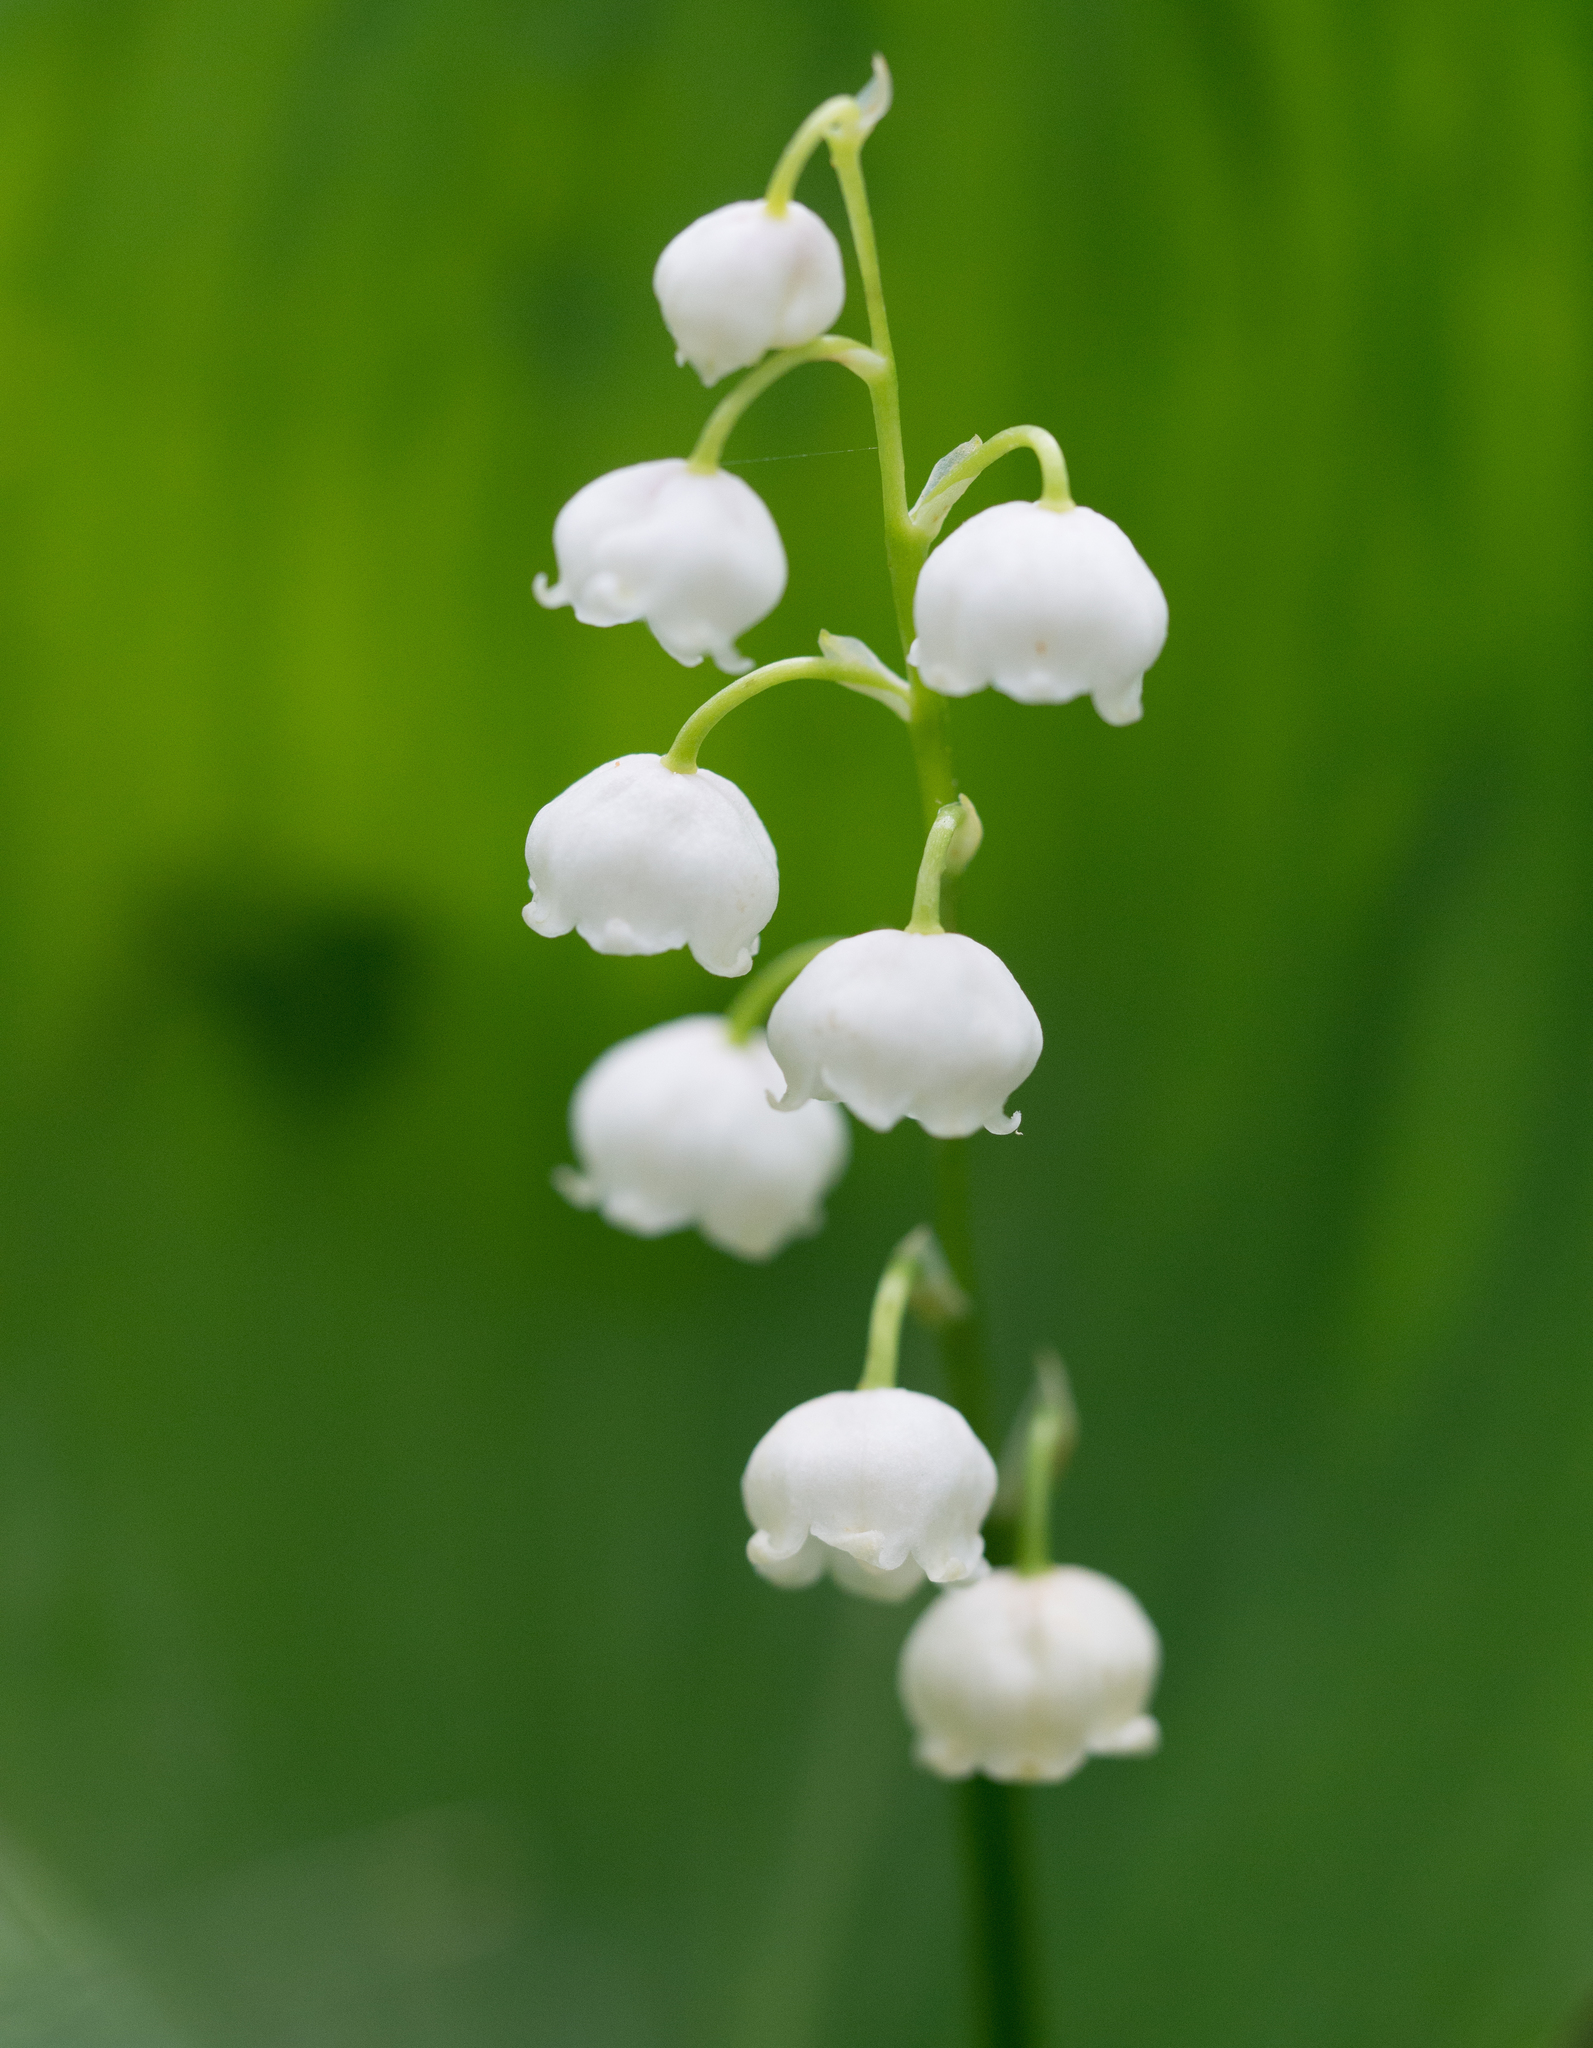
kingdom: Plantae
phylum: Tracheophyta
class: Liliopsida
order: Asparagales
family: Asparagaceae
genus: Convallaria
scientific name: Convallaria majalis
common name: Lily-of-the-valley
